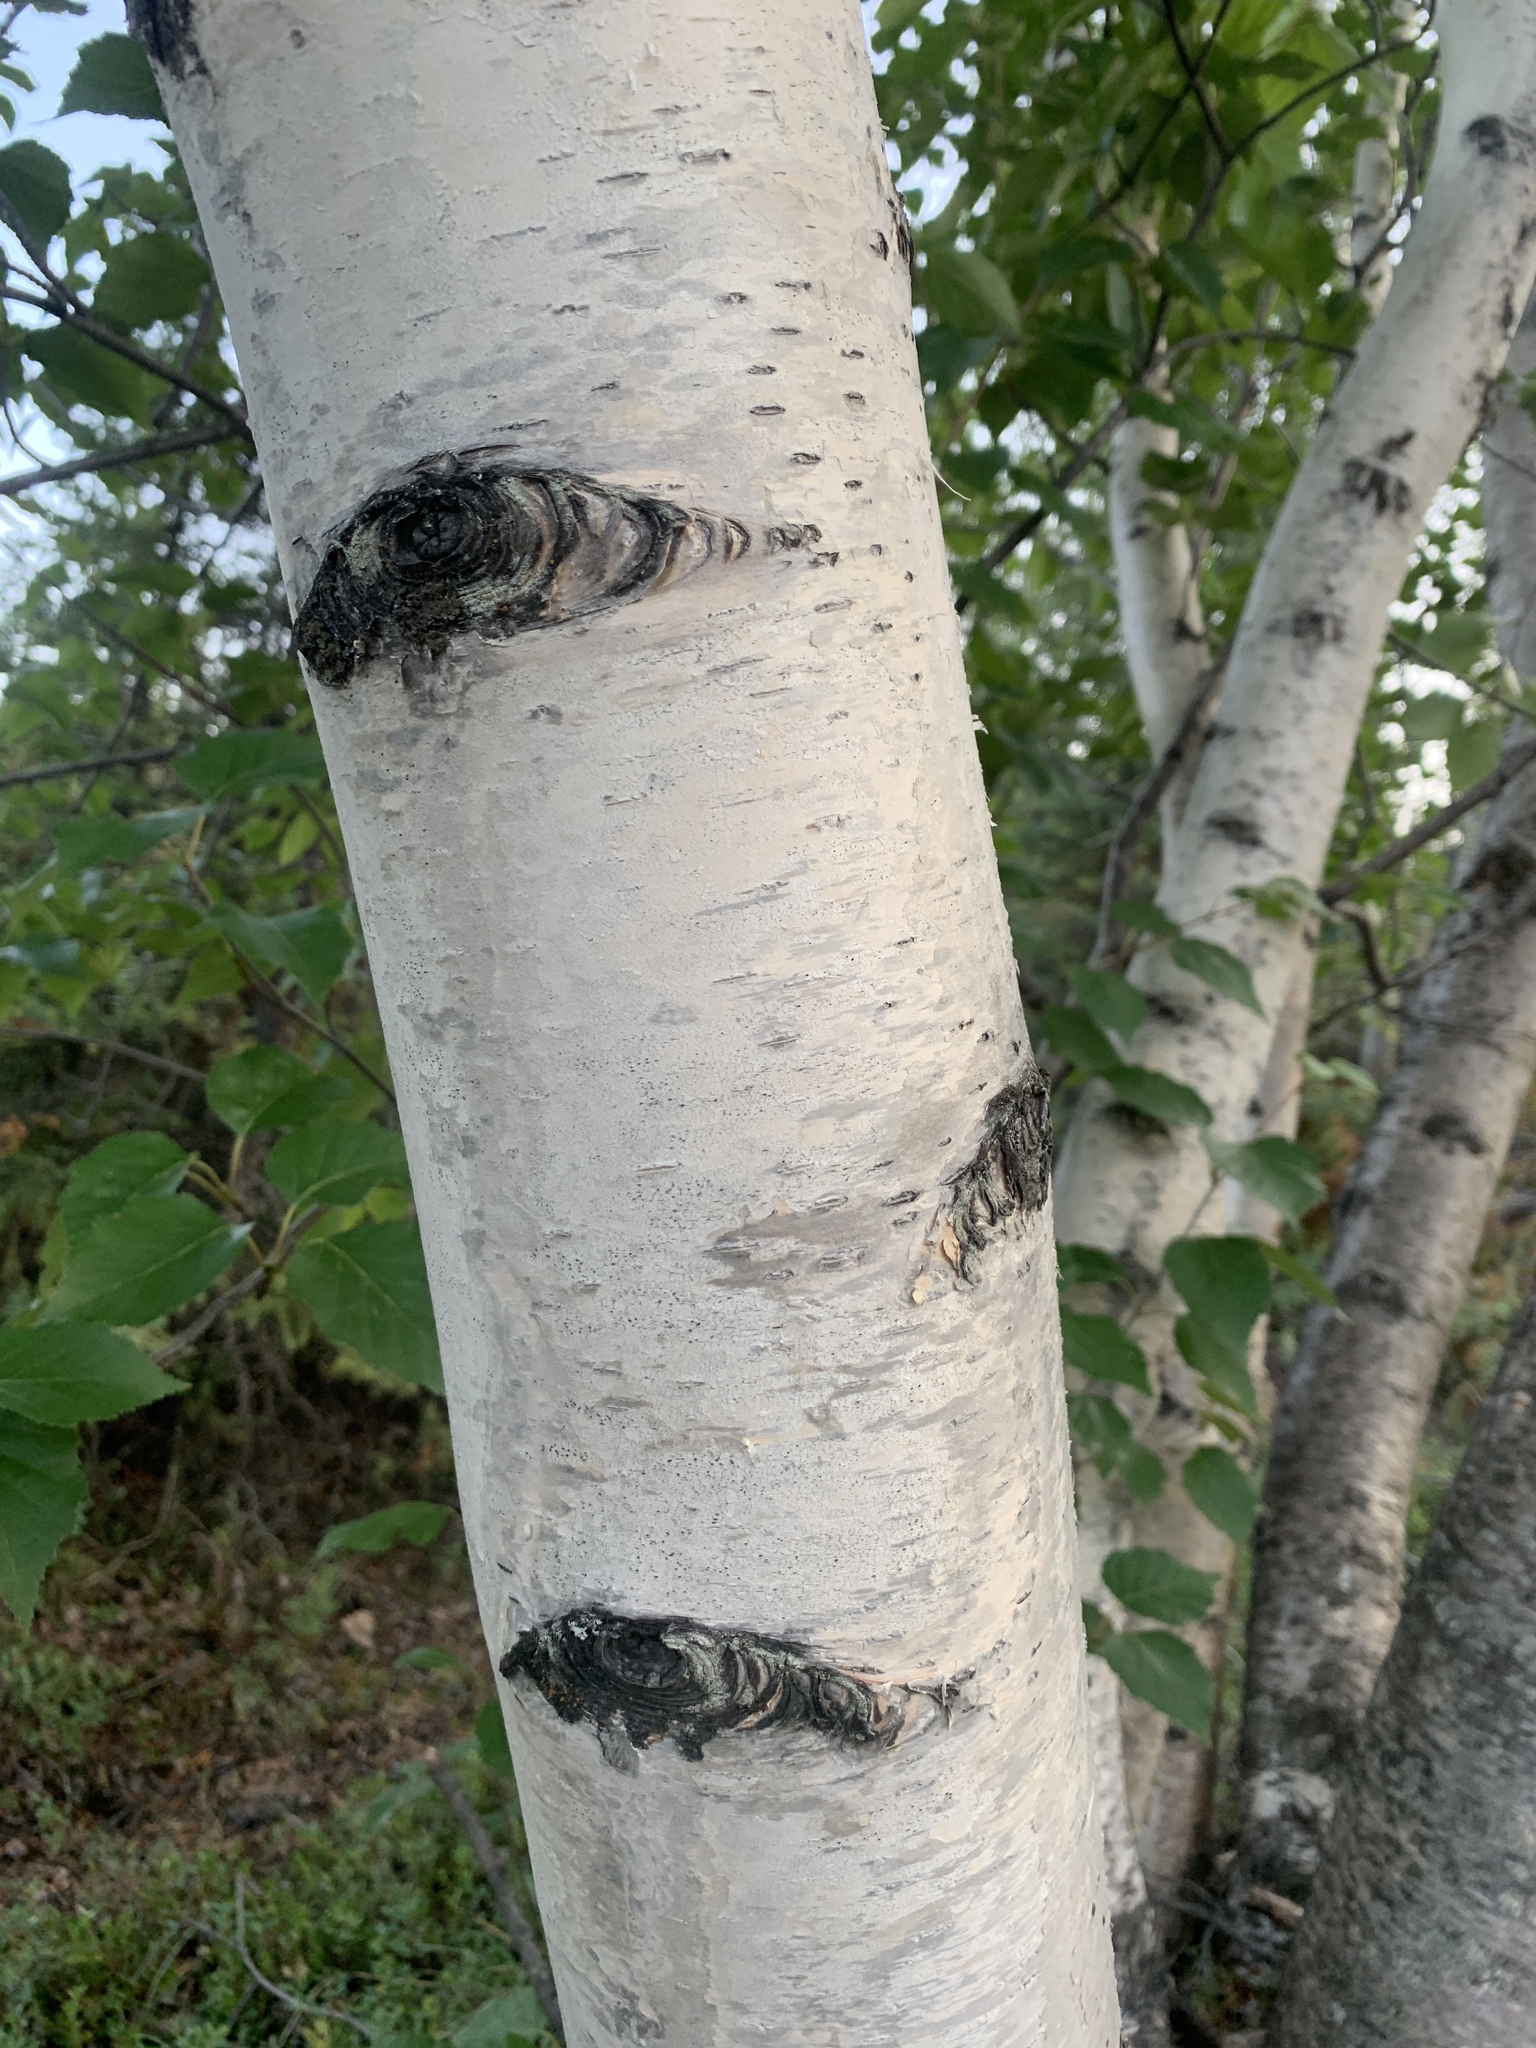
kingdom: Plantae
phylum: Tracheophyta
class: Magnoliopsida
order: Fagales
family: Betulaceae
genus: Betula
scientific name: Betula pendula
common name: Silver birch
